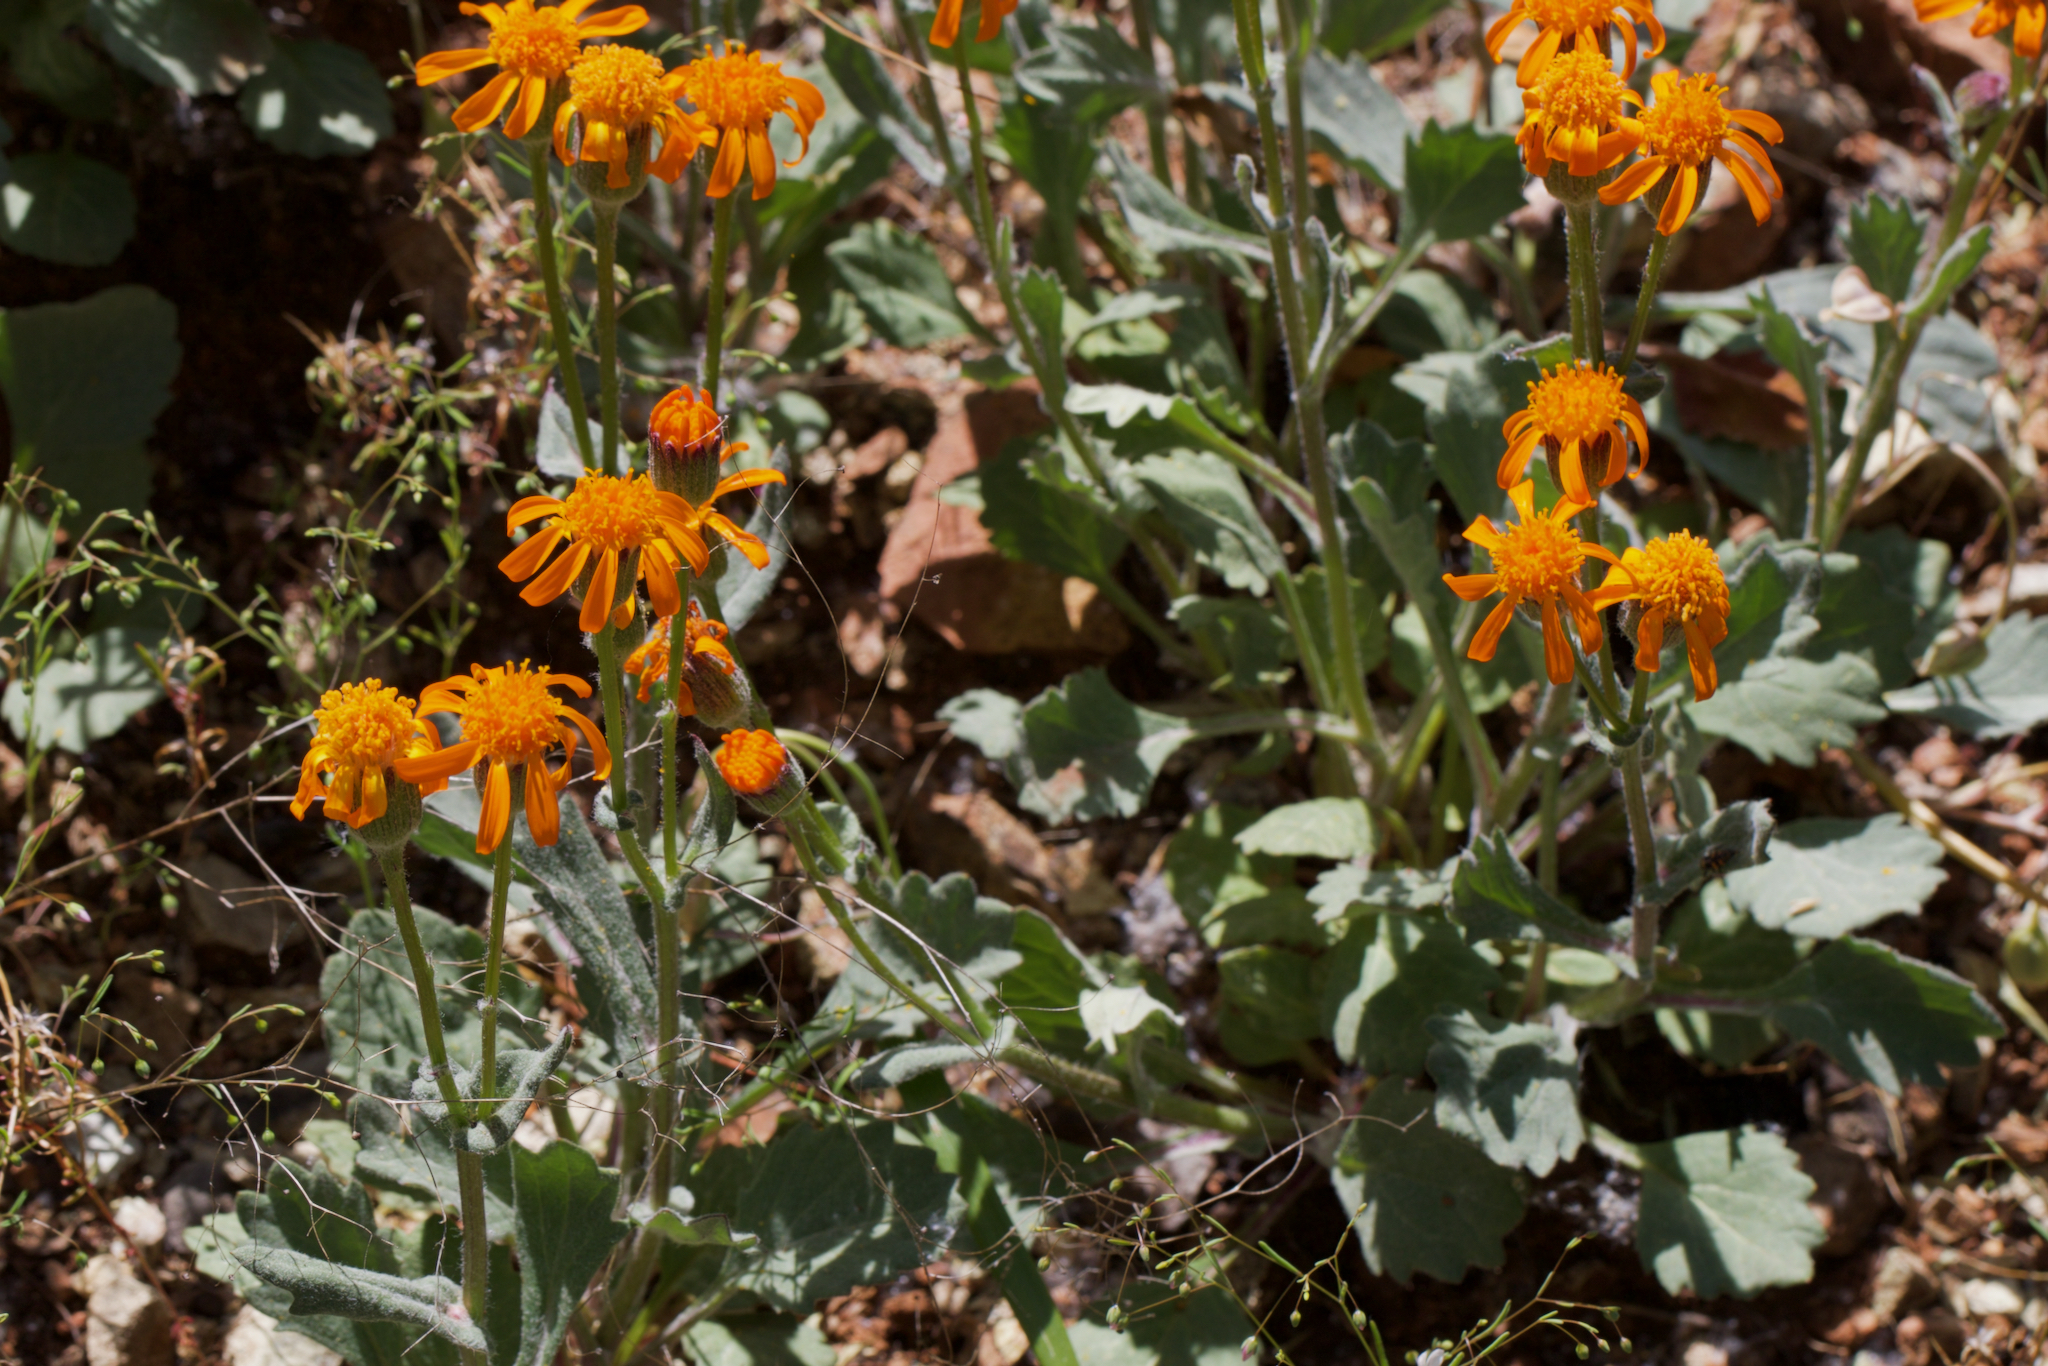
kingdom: Plantae
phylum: Tracheophyta
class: Magnoliopsida
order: Asterales
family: Asteraceae
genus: Packera
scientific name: Packera greenei
